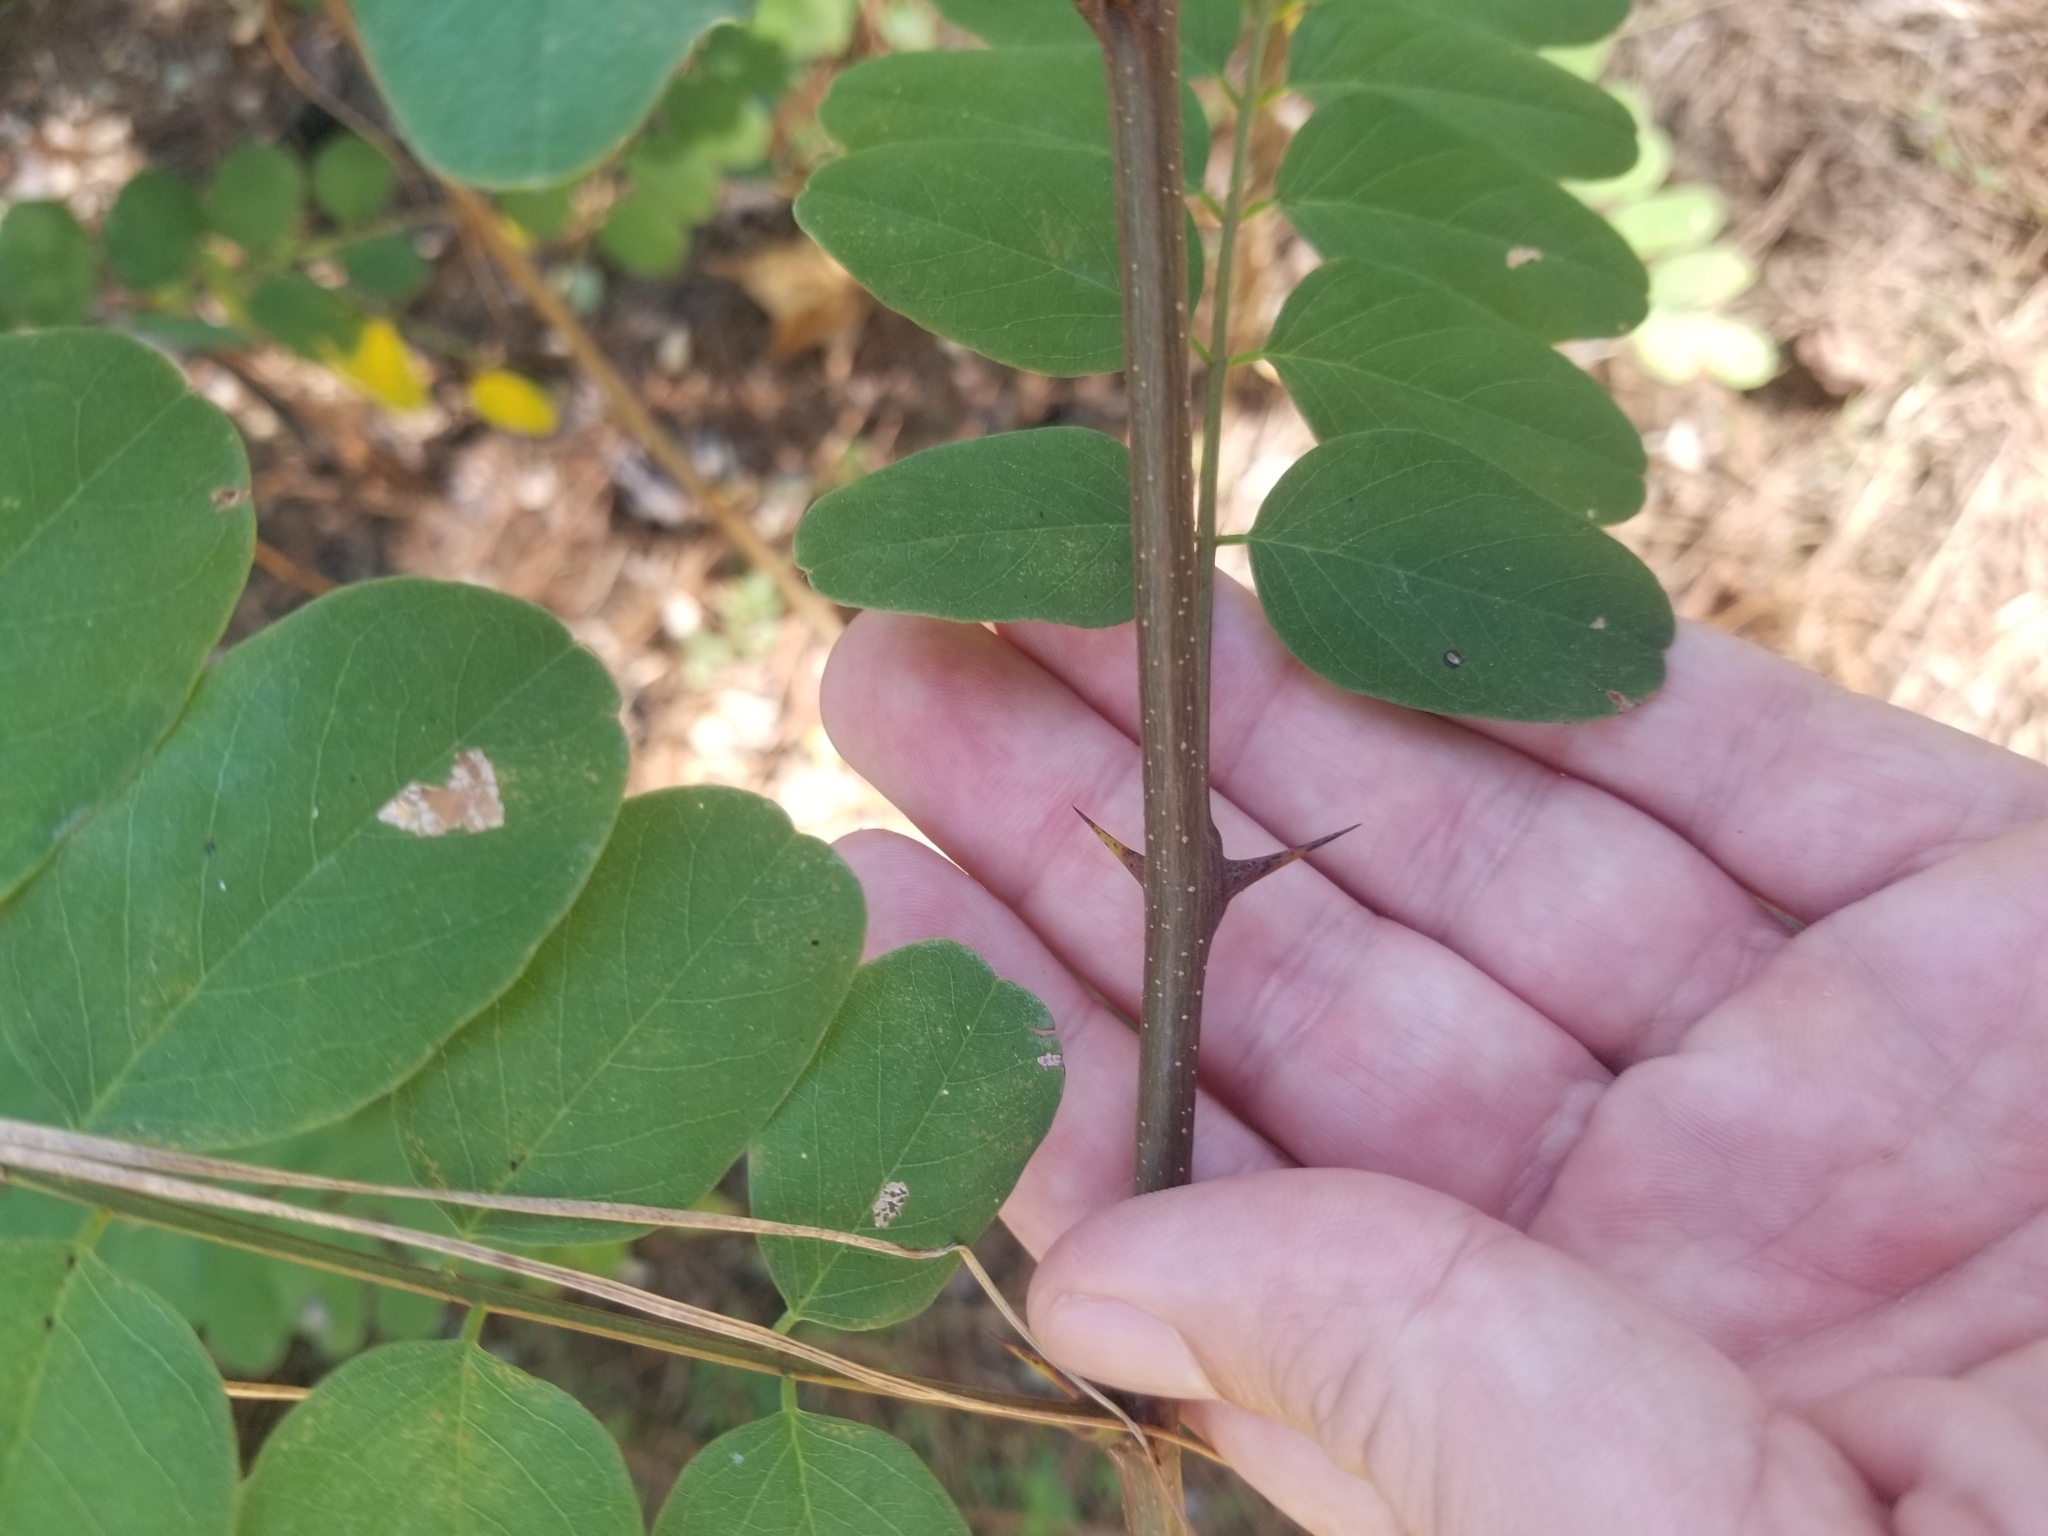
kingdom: Plantae
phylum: Tracheophyta
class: Magnoliopsida
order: Fabales
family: Fabaceae
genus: Robinia
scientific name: Robinia pseudoacacia
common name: Black locust
